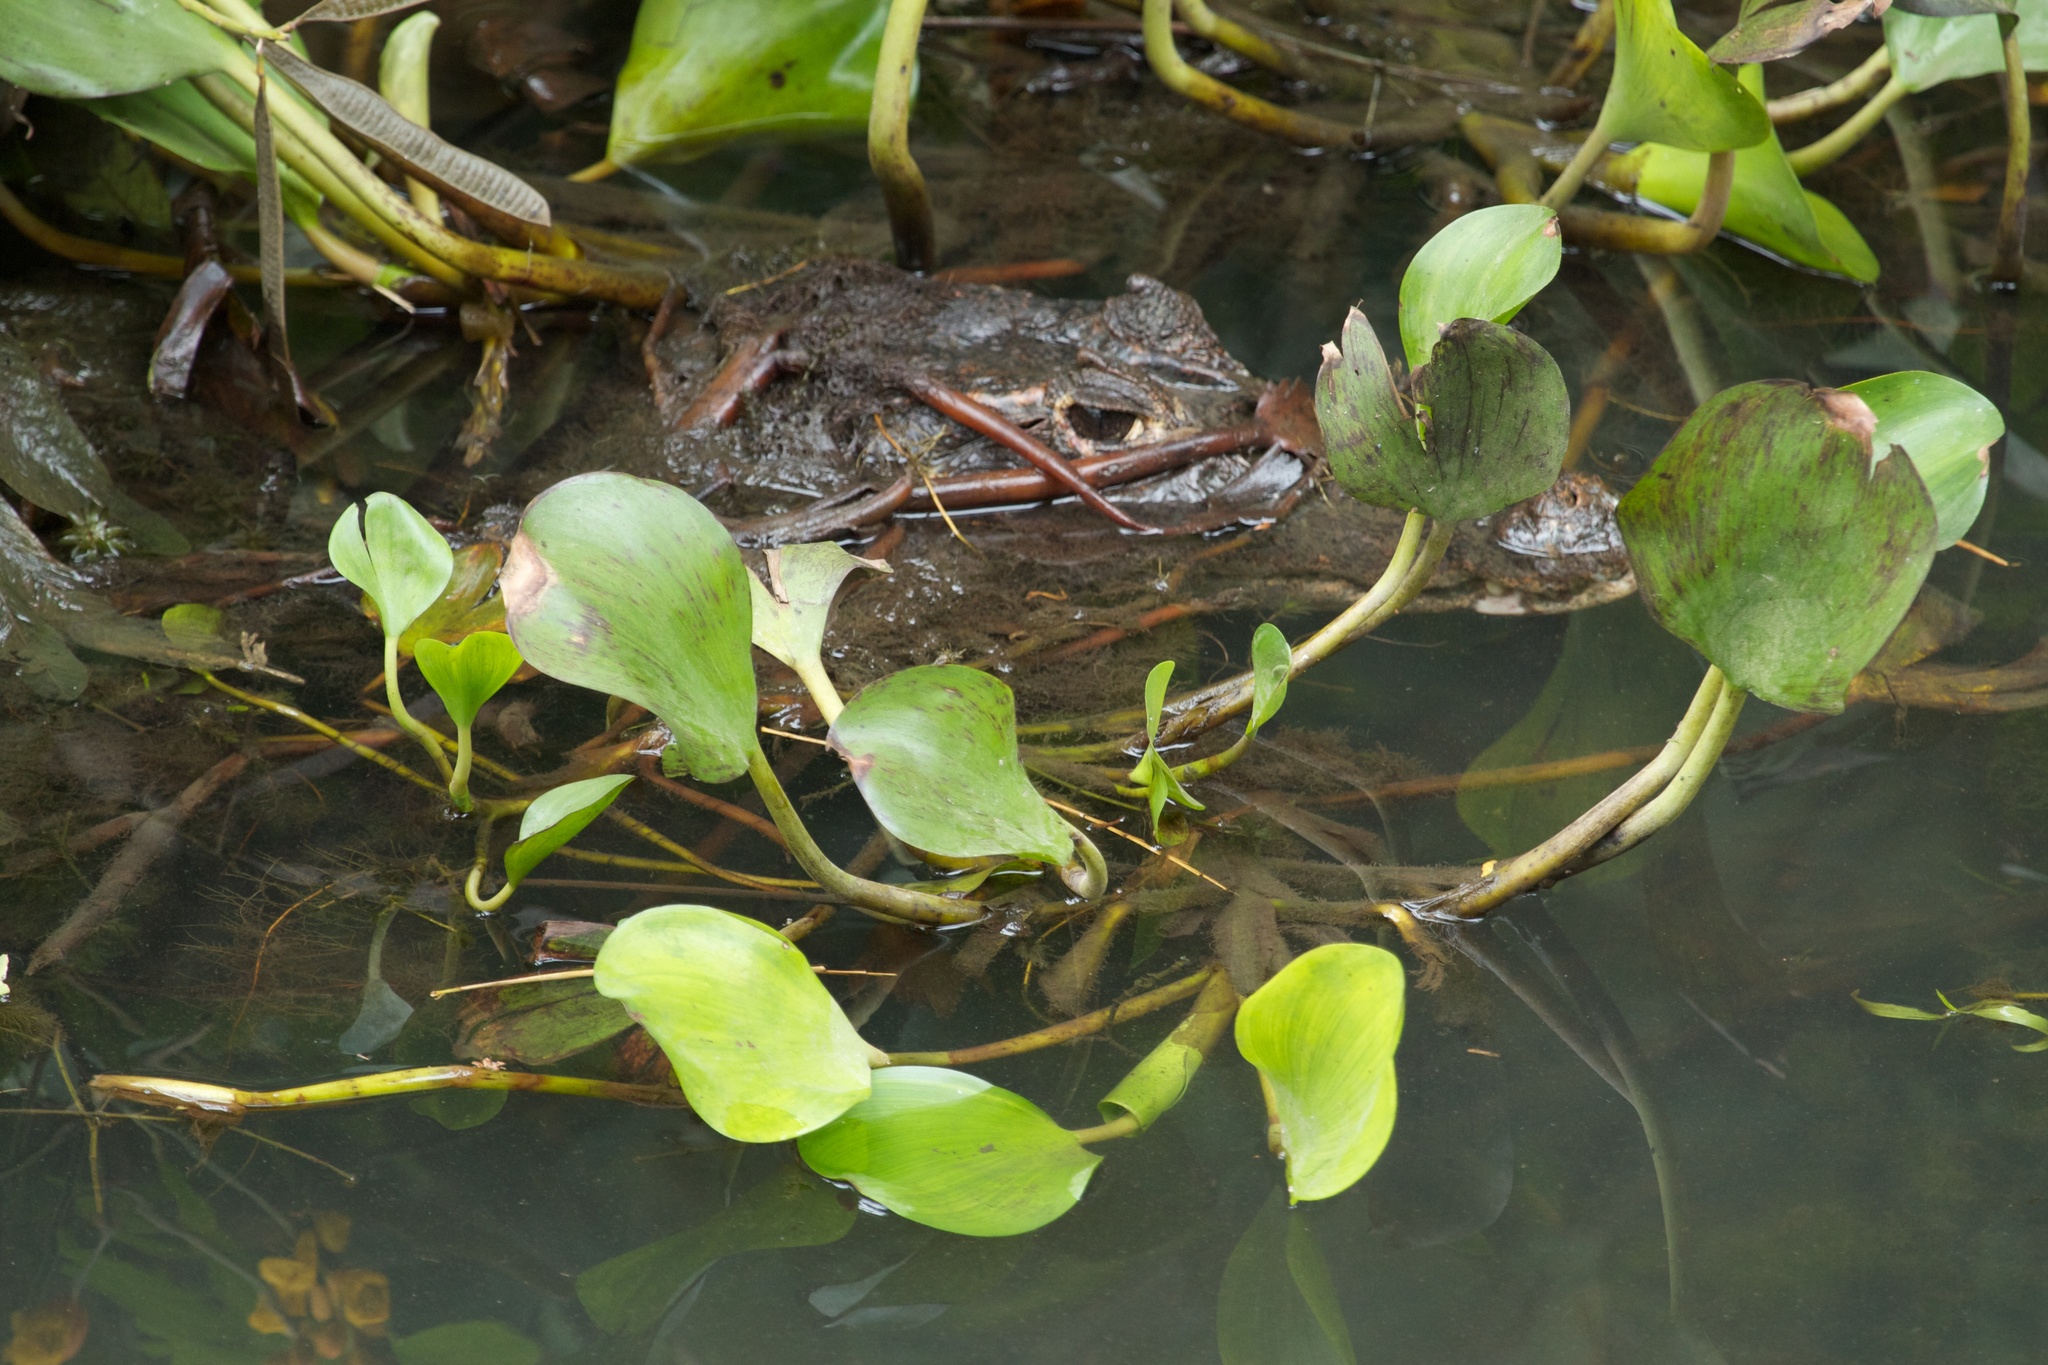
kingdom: Animalia
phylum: Chordata
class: Crocodylia
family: Alligatoridae
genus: Caiman
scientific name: Caiman crocodilus
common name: Common caiman
